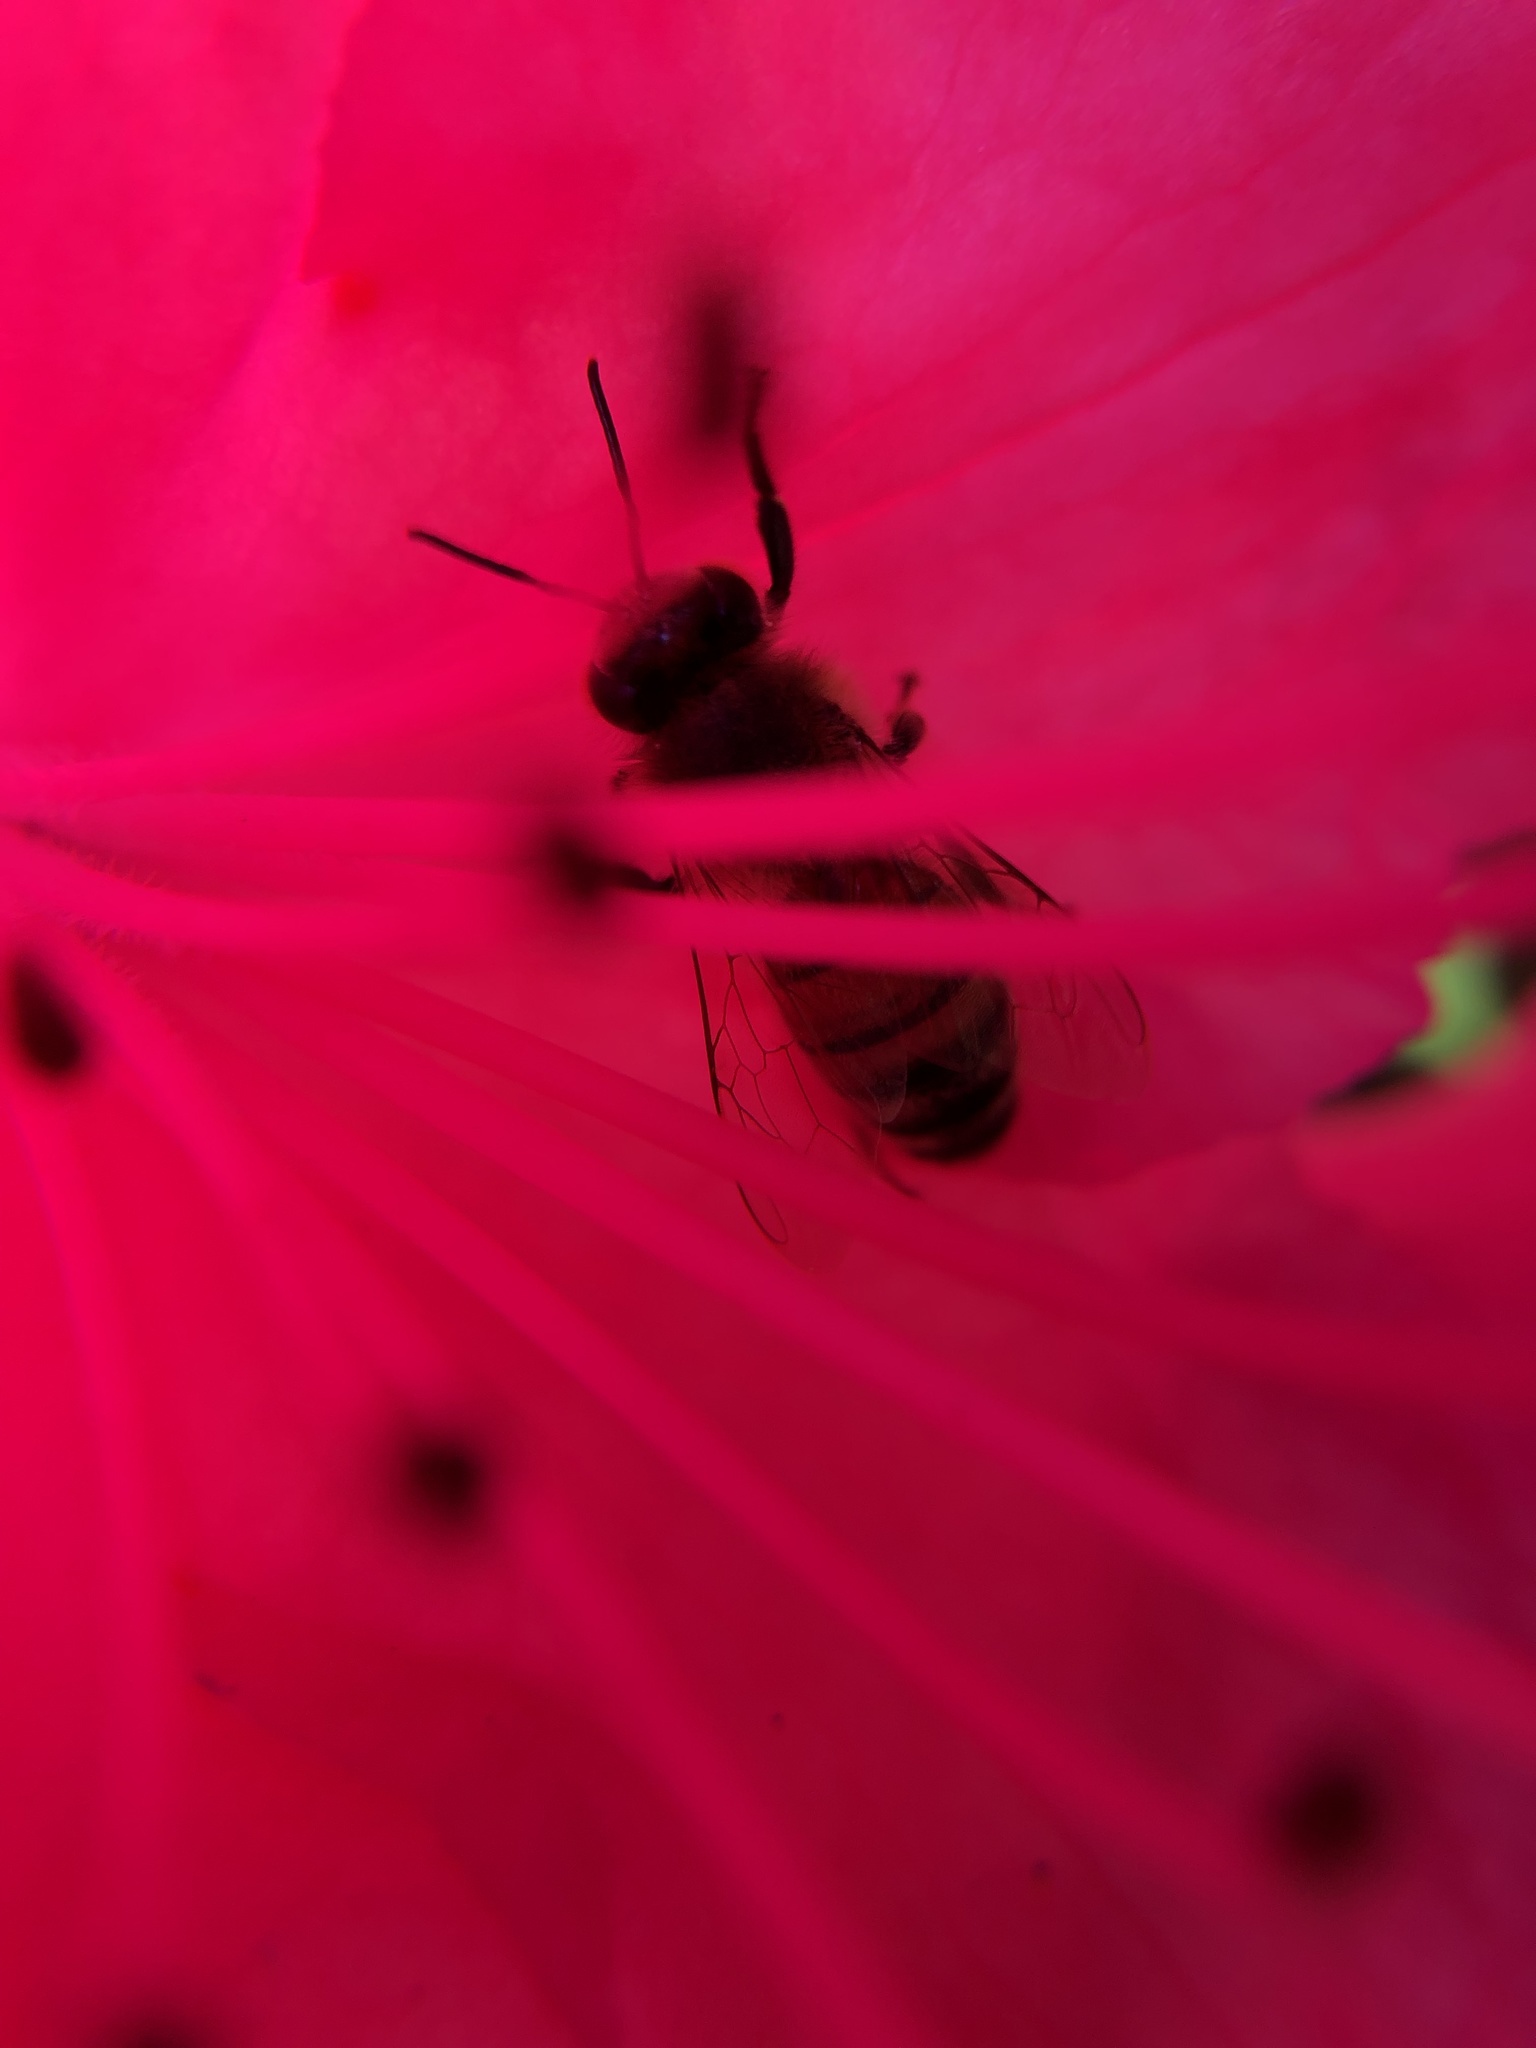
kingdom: Animalia
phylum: Arthropoda
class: Insecta
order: Hymenoptera
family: Apidae
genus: Apis
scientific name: Apis mellifera
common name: Honey bee
